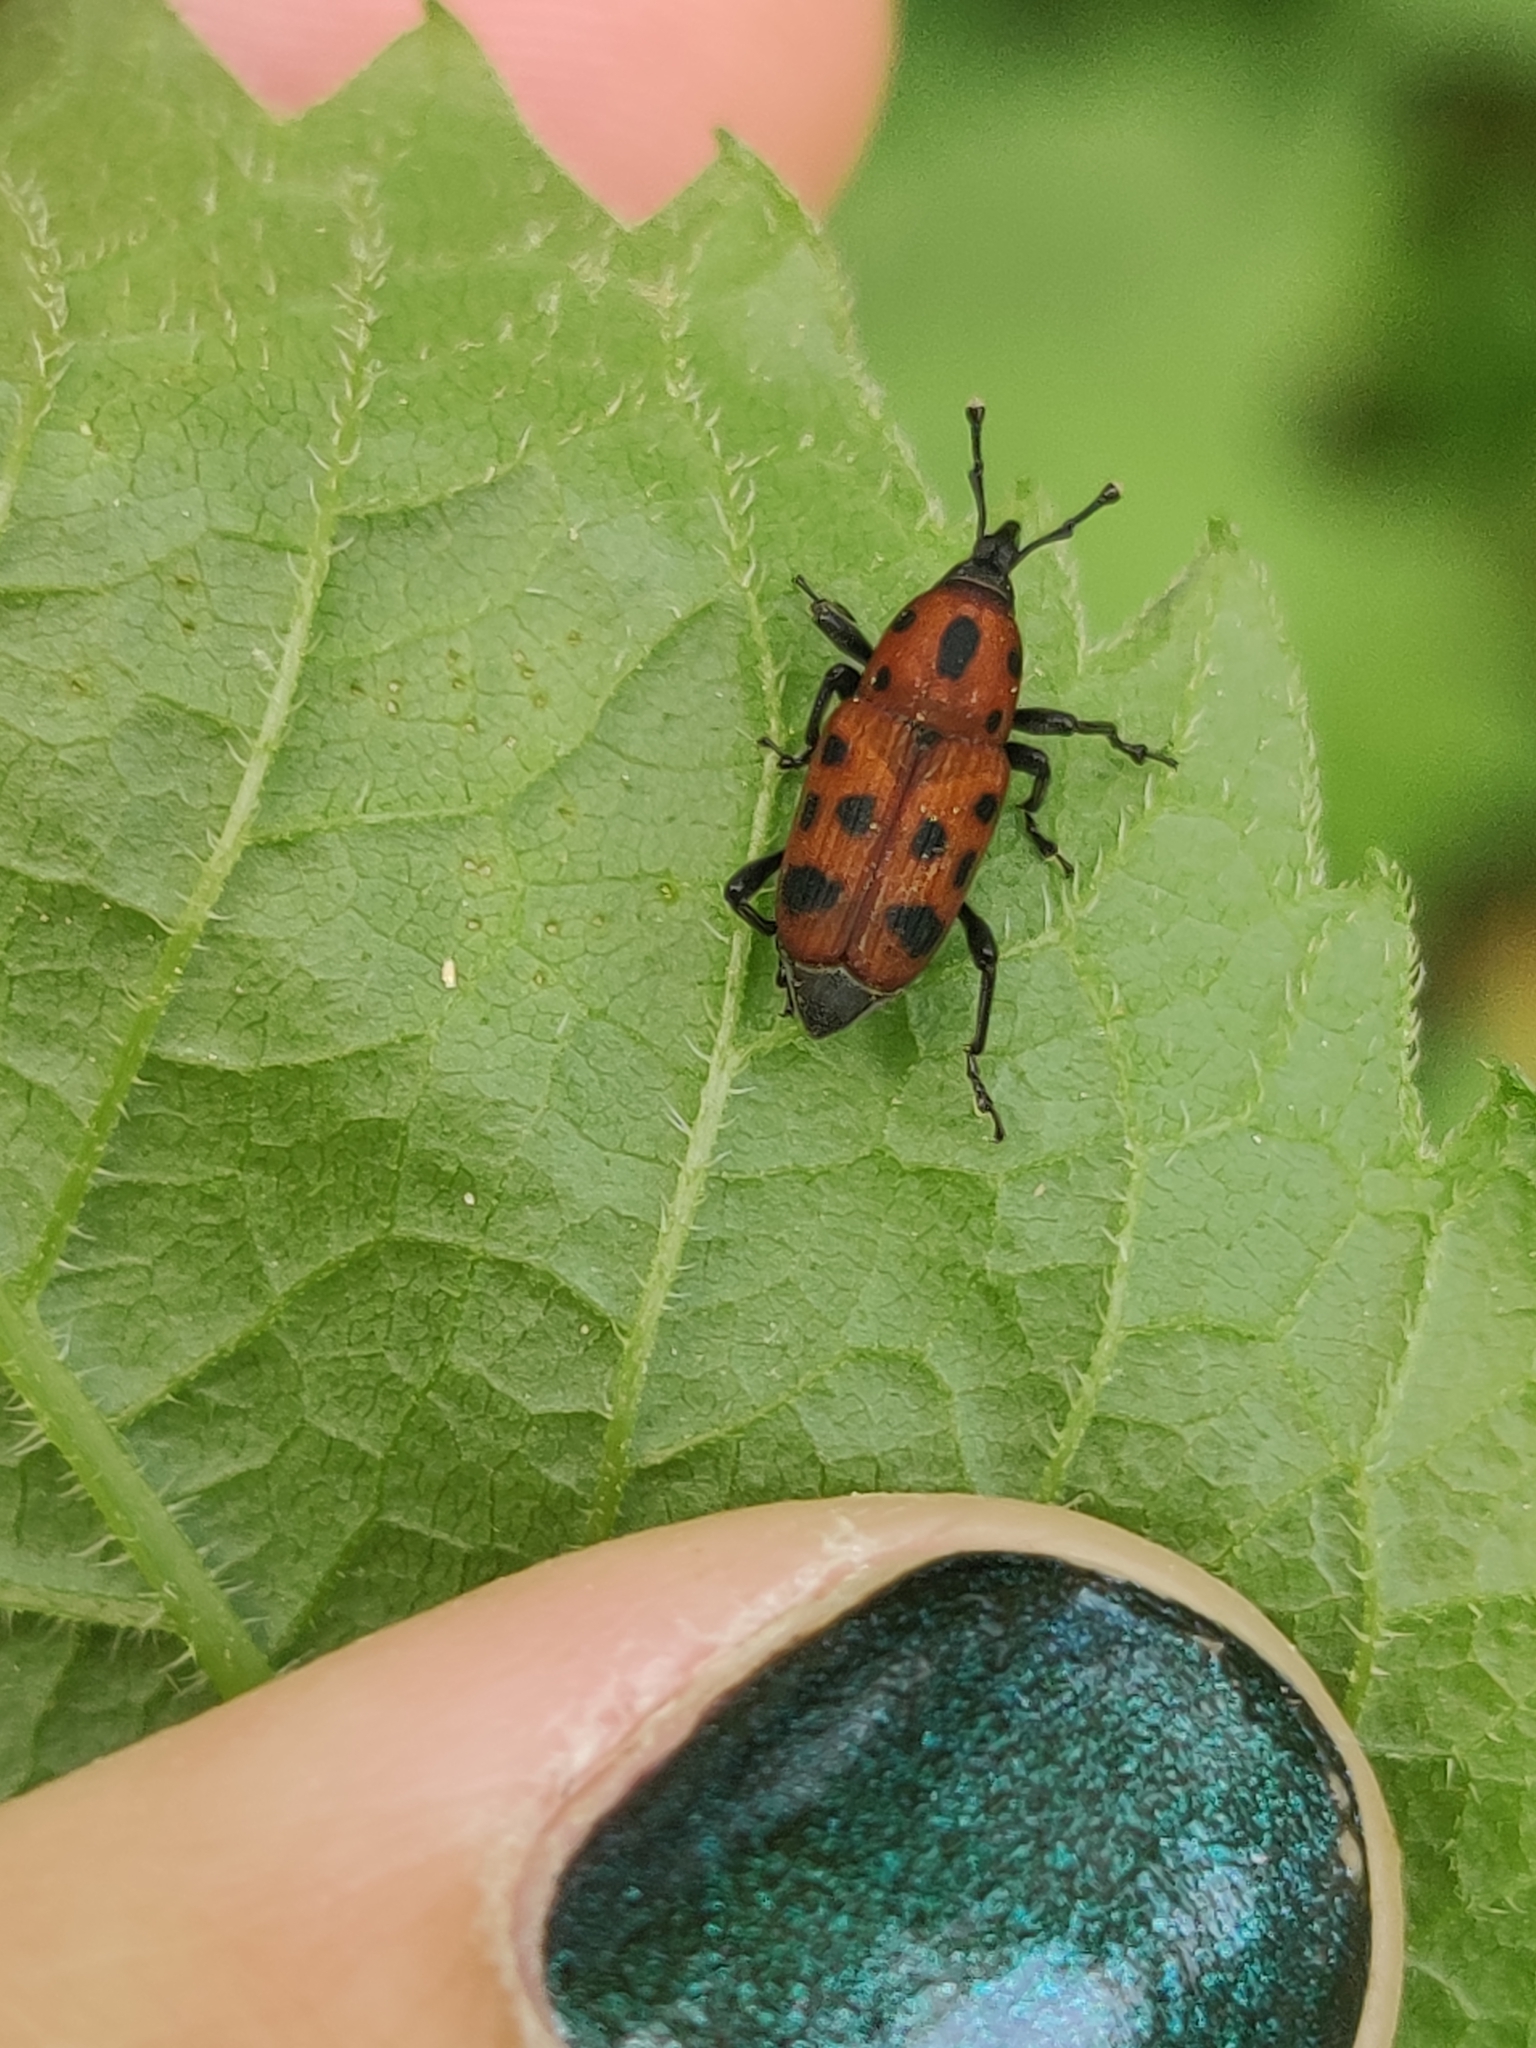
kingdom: Animalia
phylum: Arthropoda
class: Insecta
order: Coleoptera
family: Dryophthoridae
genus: Rhodobaenus
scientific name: Rhodobaenus tredecimpunctatus
